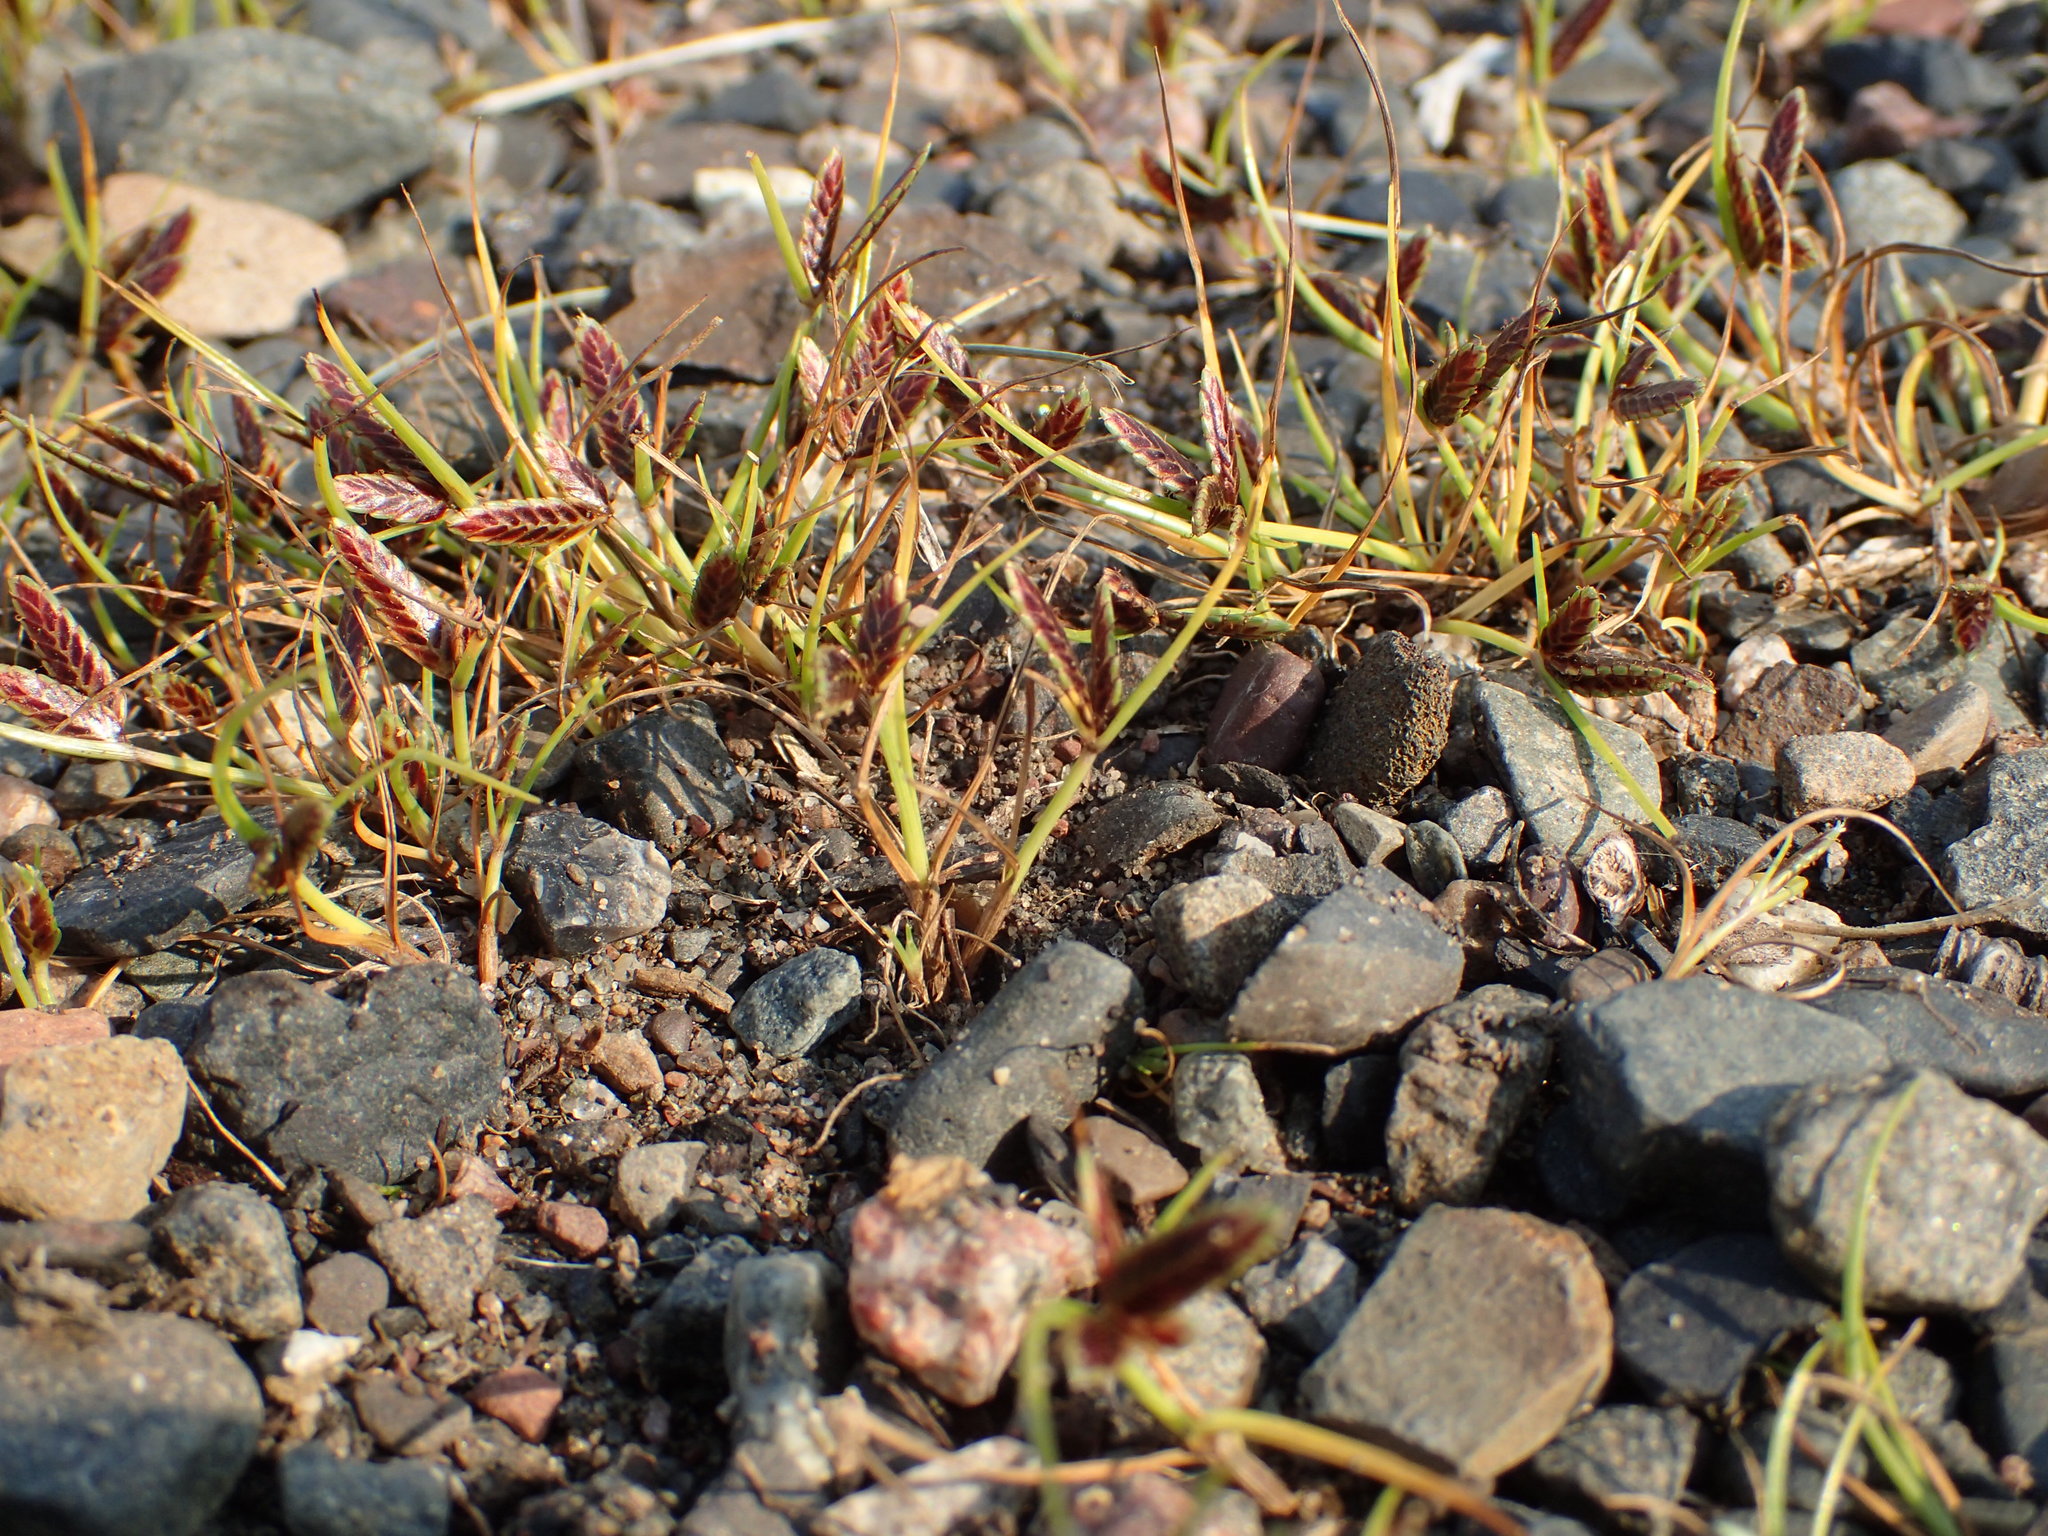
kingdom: Plantae
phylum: Tracheophyta
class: Liliopsida
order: Poales
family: Cyperaceae
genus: Cyperus
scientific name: Cyperus bipartitus
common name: Brook flatsedge
